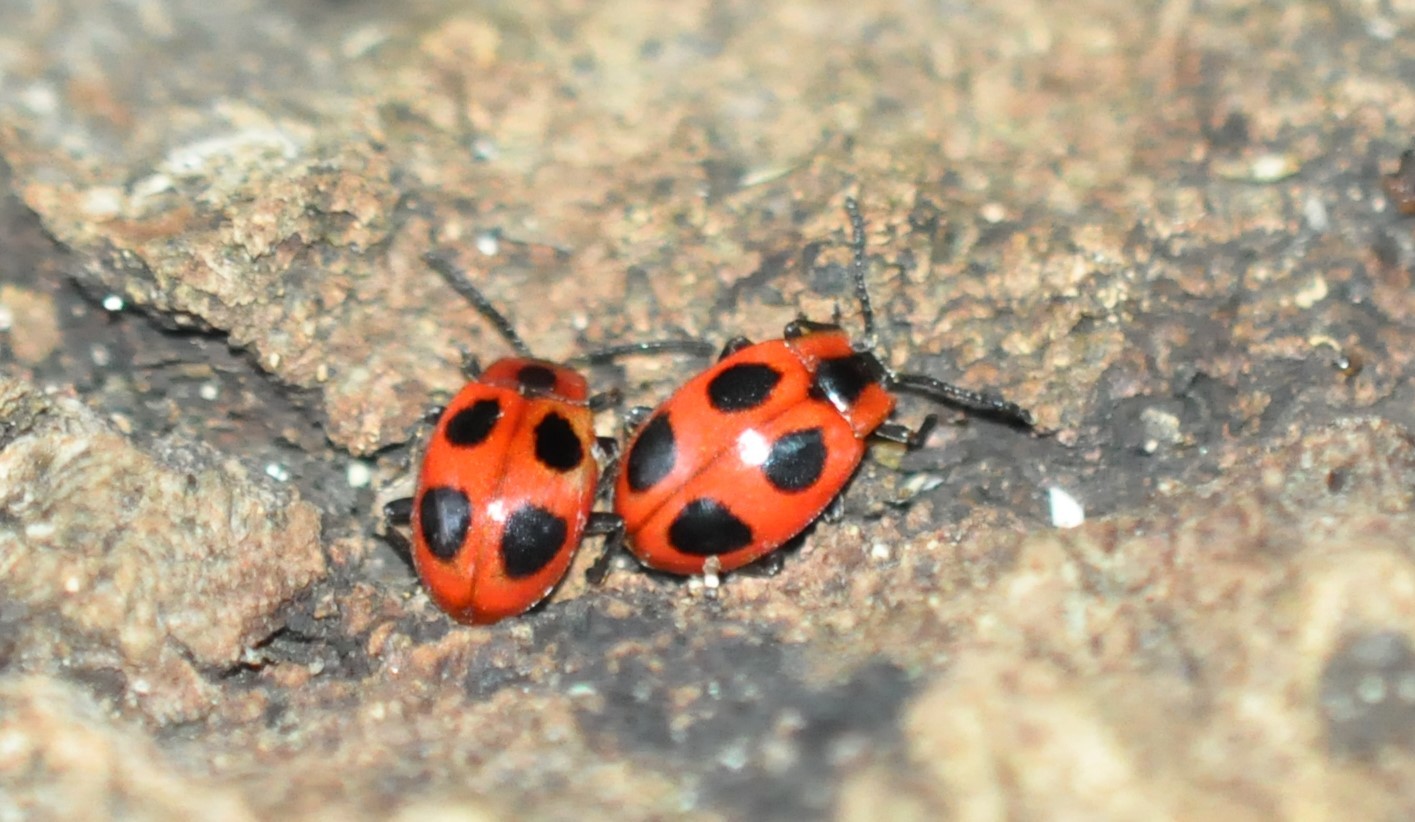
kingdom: Animalia
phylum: Arthropoda
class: Insecta
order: Coleoptera
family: Endomychidae
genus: Endomychus
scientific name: Endomychus coccineus
